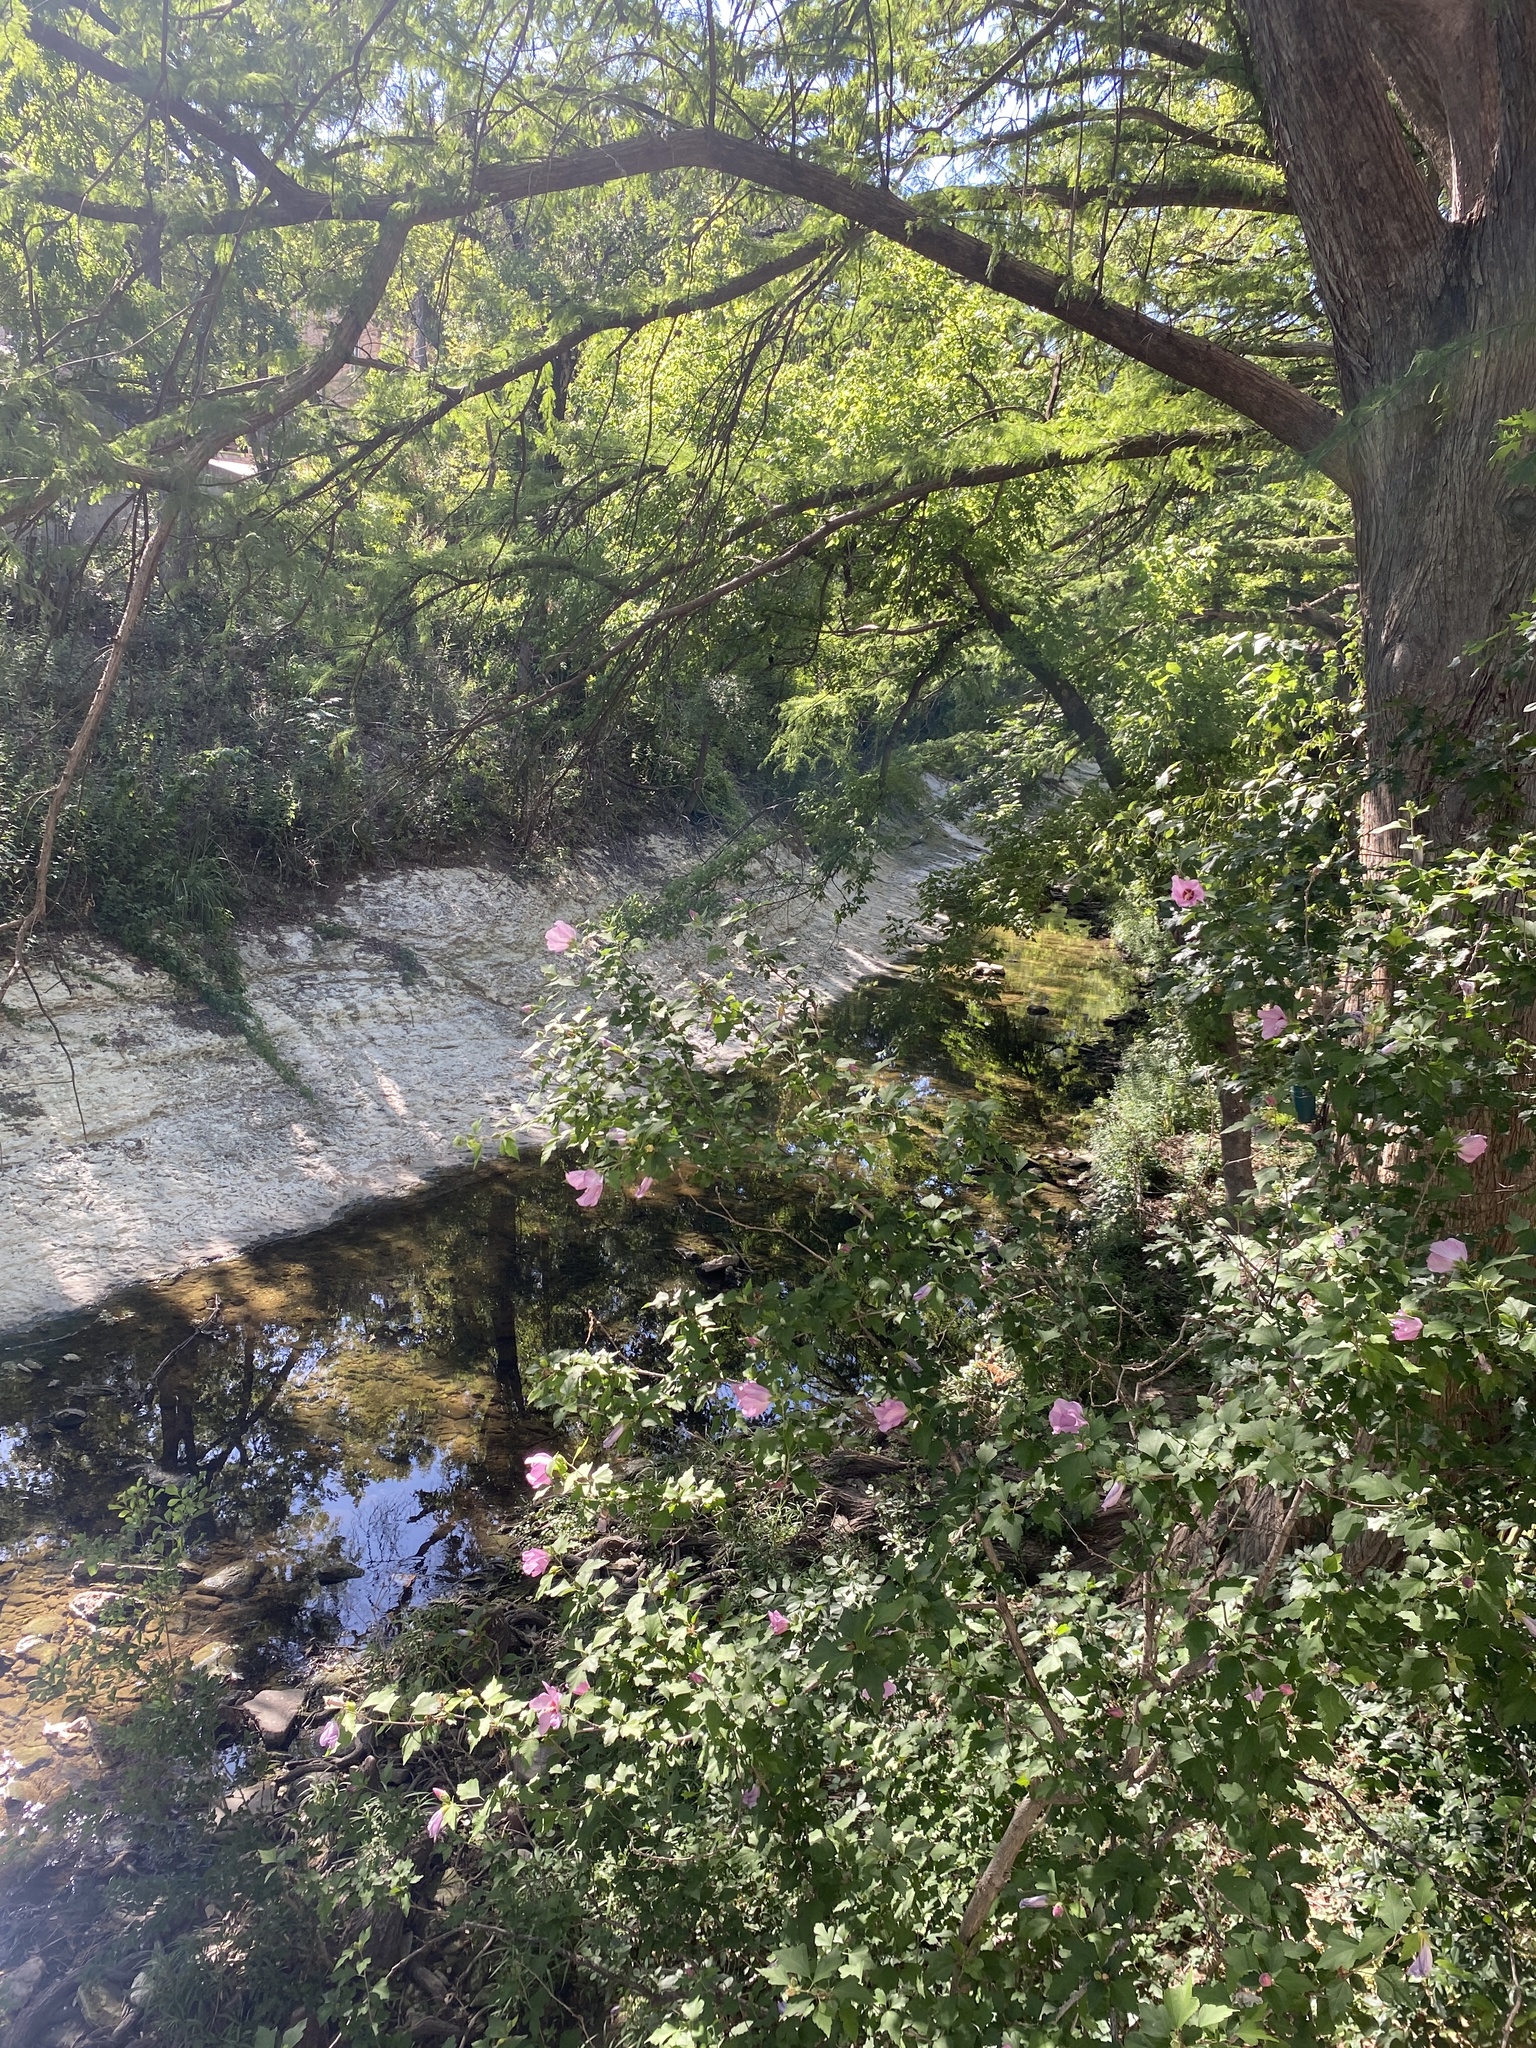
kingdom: Plantae
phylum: Tracheophyta
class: Magnoliopsida
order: Malvales
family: Malvaceae
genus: Hibiscus
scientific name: Hibiscus syriacus
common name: Syrian ketmia
